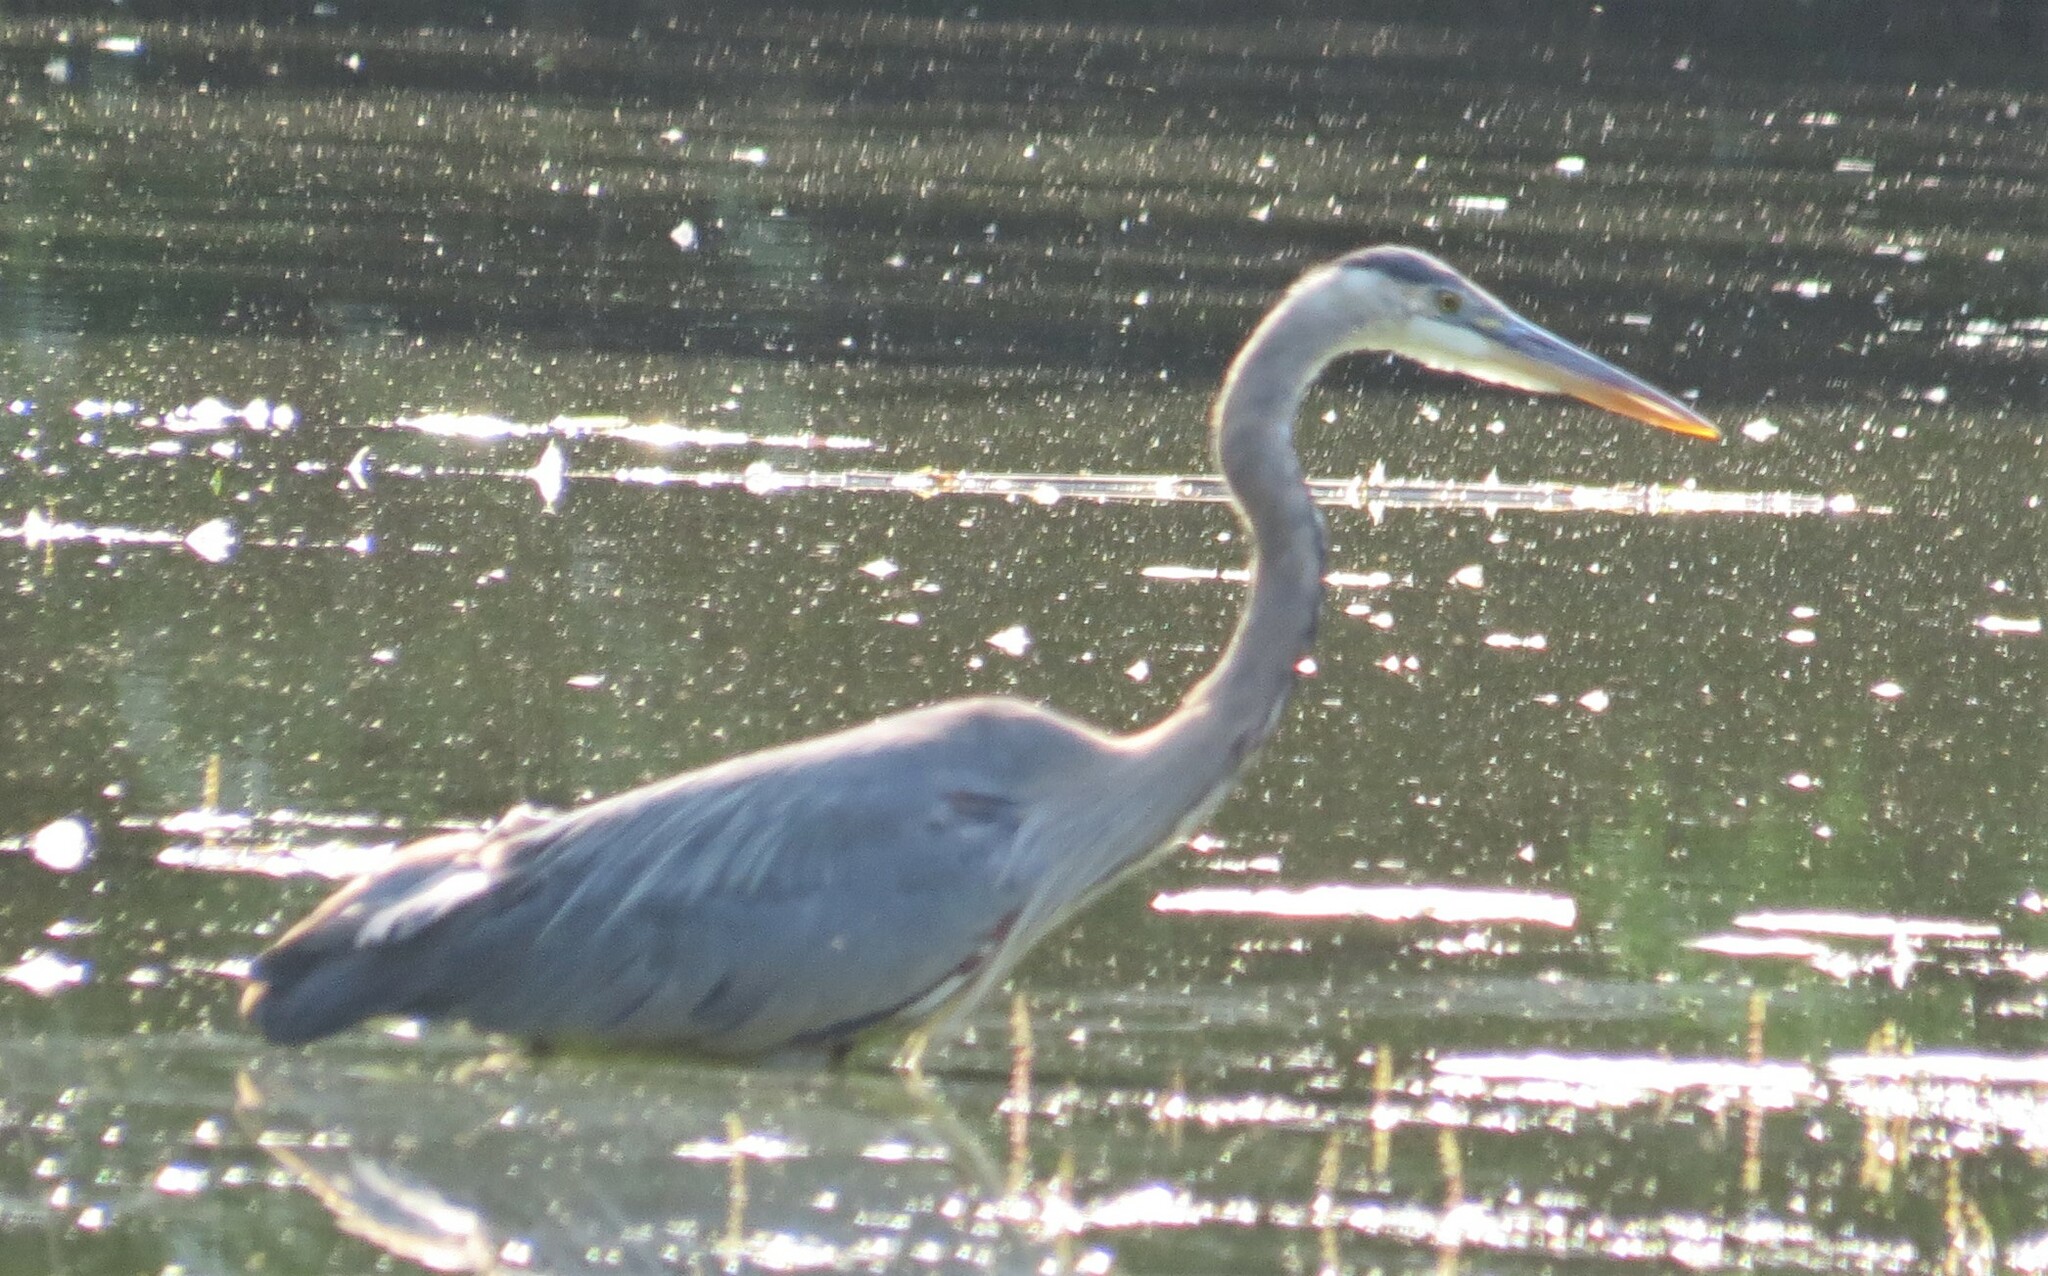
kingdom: Animalia
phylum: Chordata
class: Aves
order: Pelecaniformes
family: Ardeidae
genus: Ardea
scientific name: Ardea herodias
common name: Great blue heron
